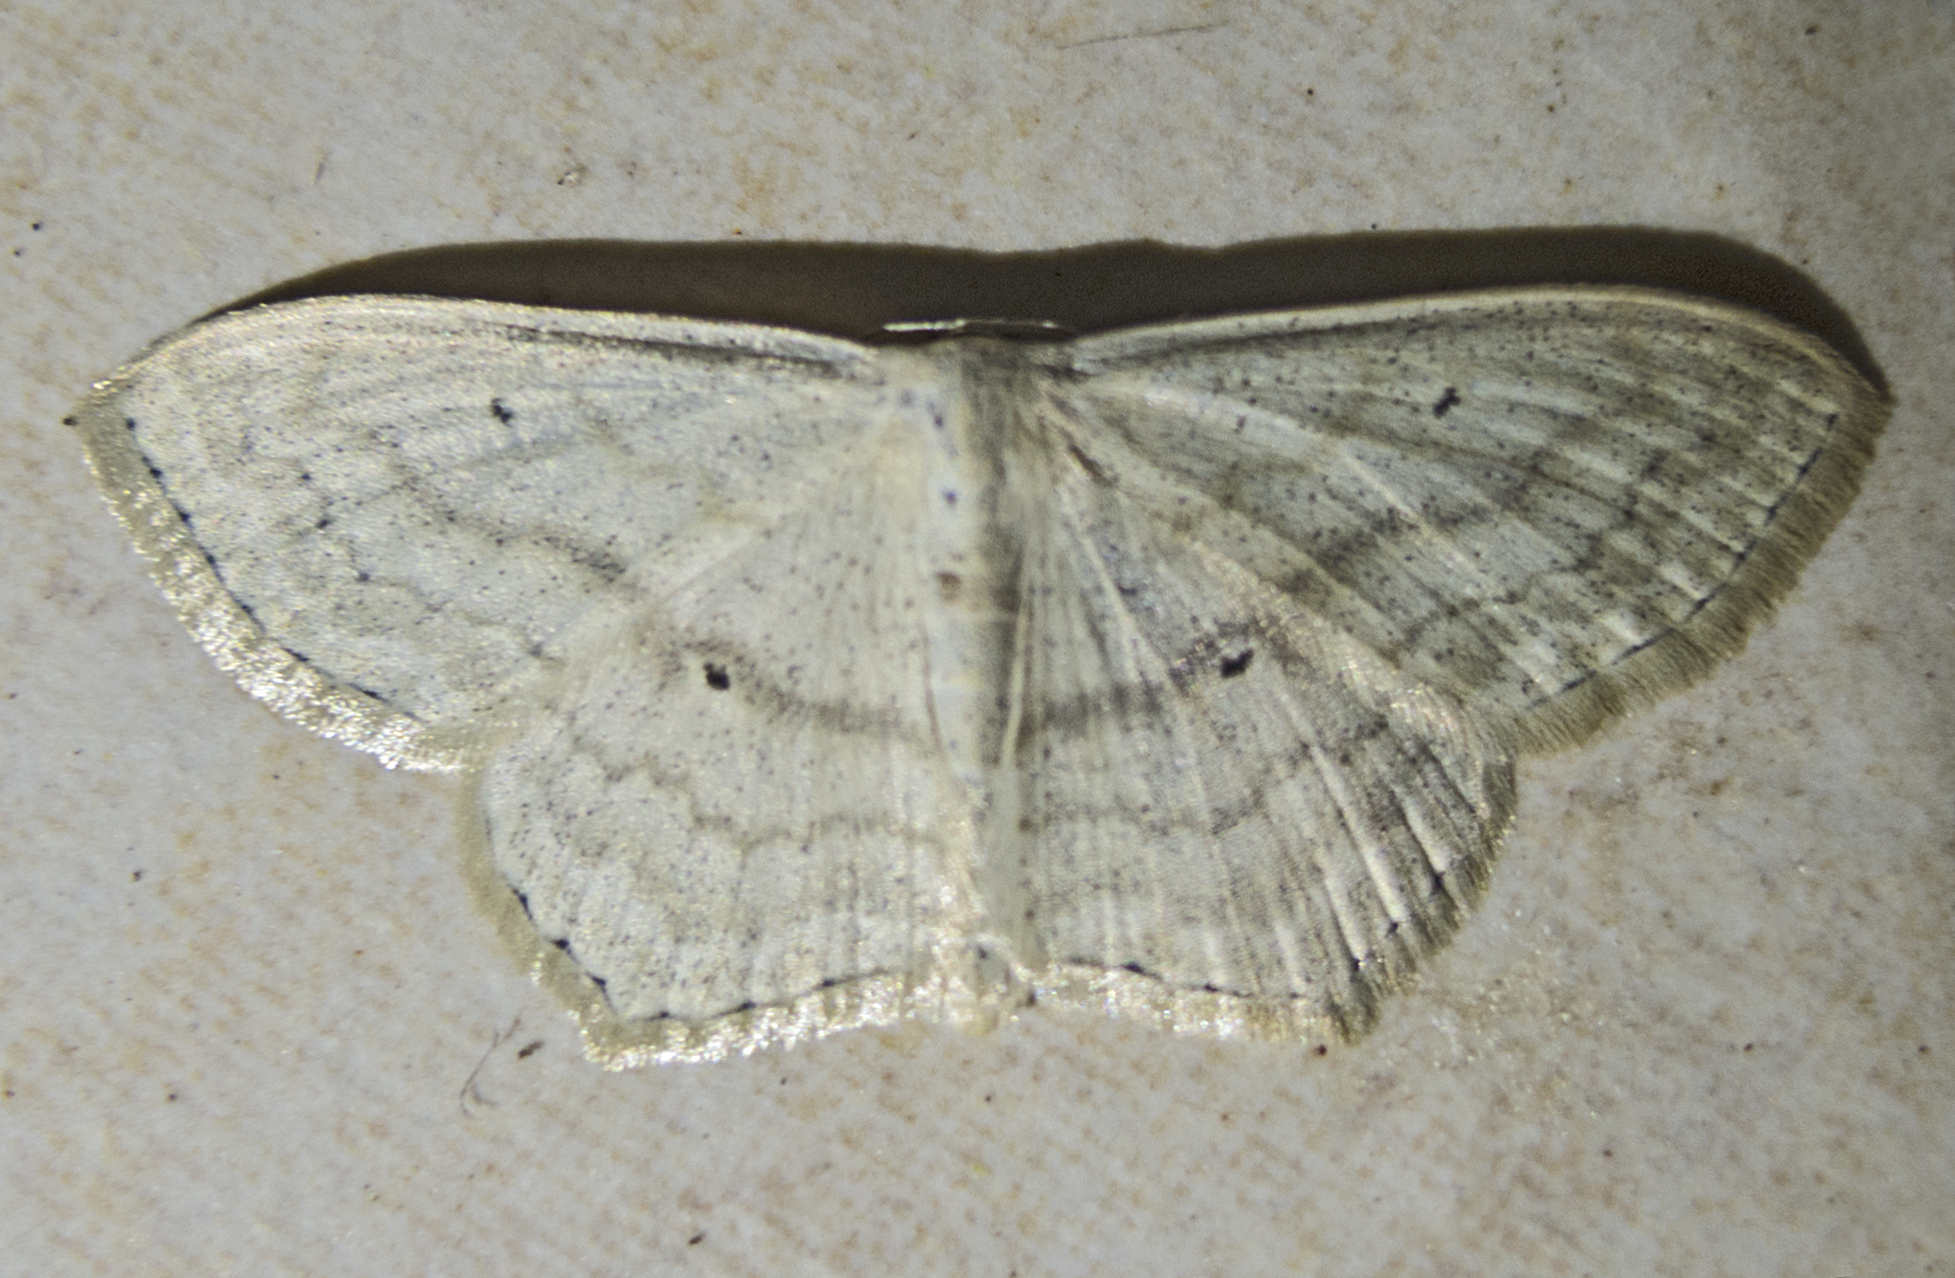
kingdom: Animalia
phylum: Arthropoda
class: Insecta
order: Lepidoptera
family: Geometridae
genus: Scopula
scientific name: Scopula nigropunctata
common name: Sub-angled wave
